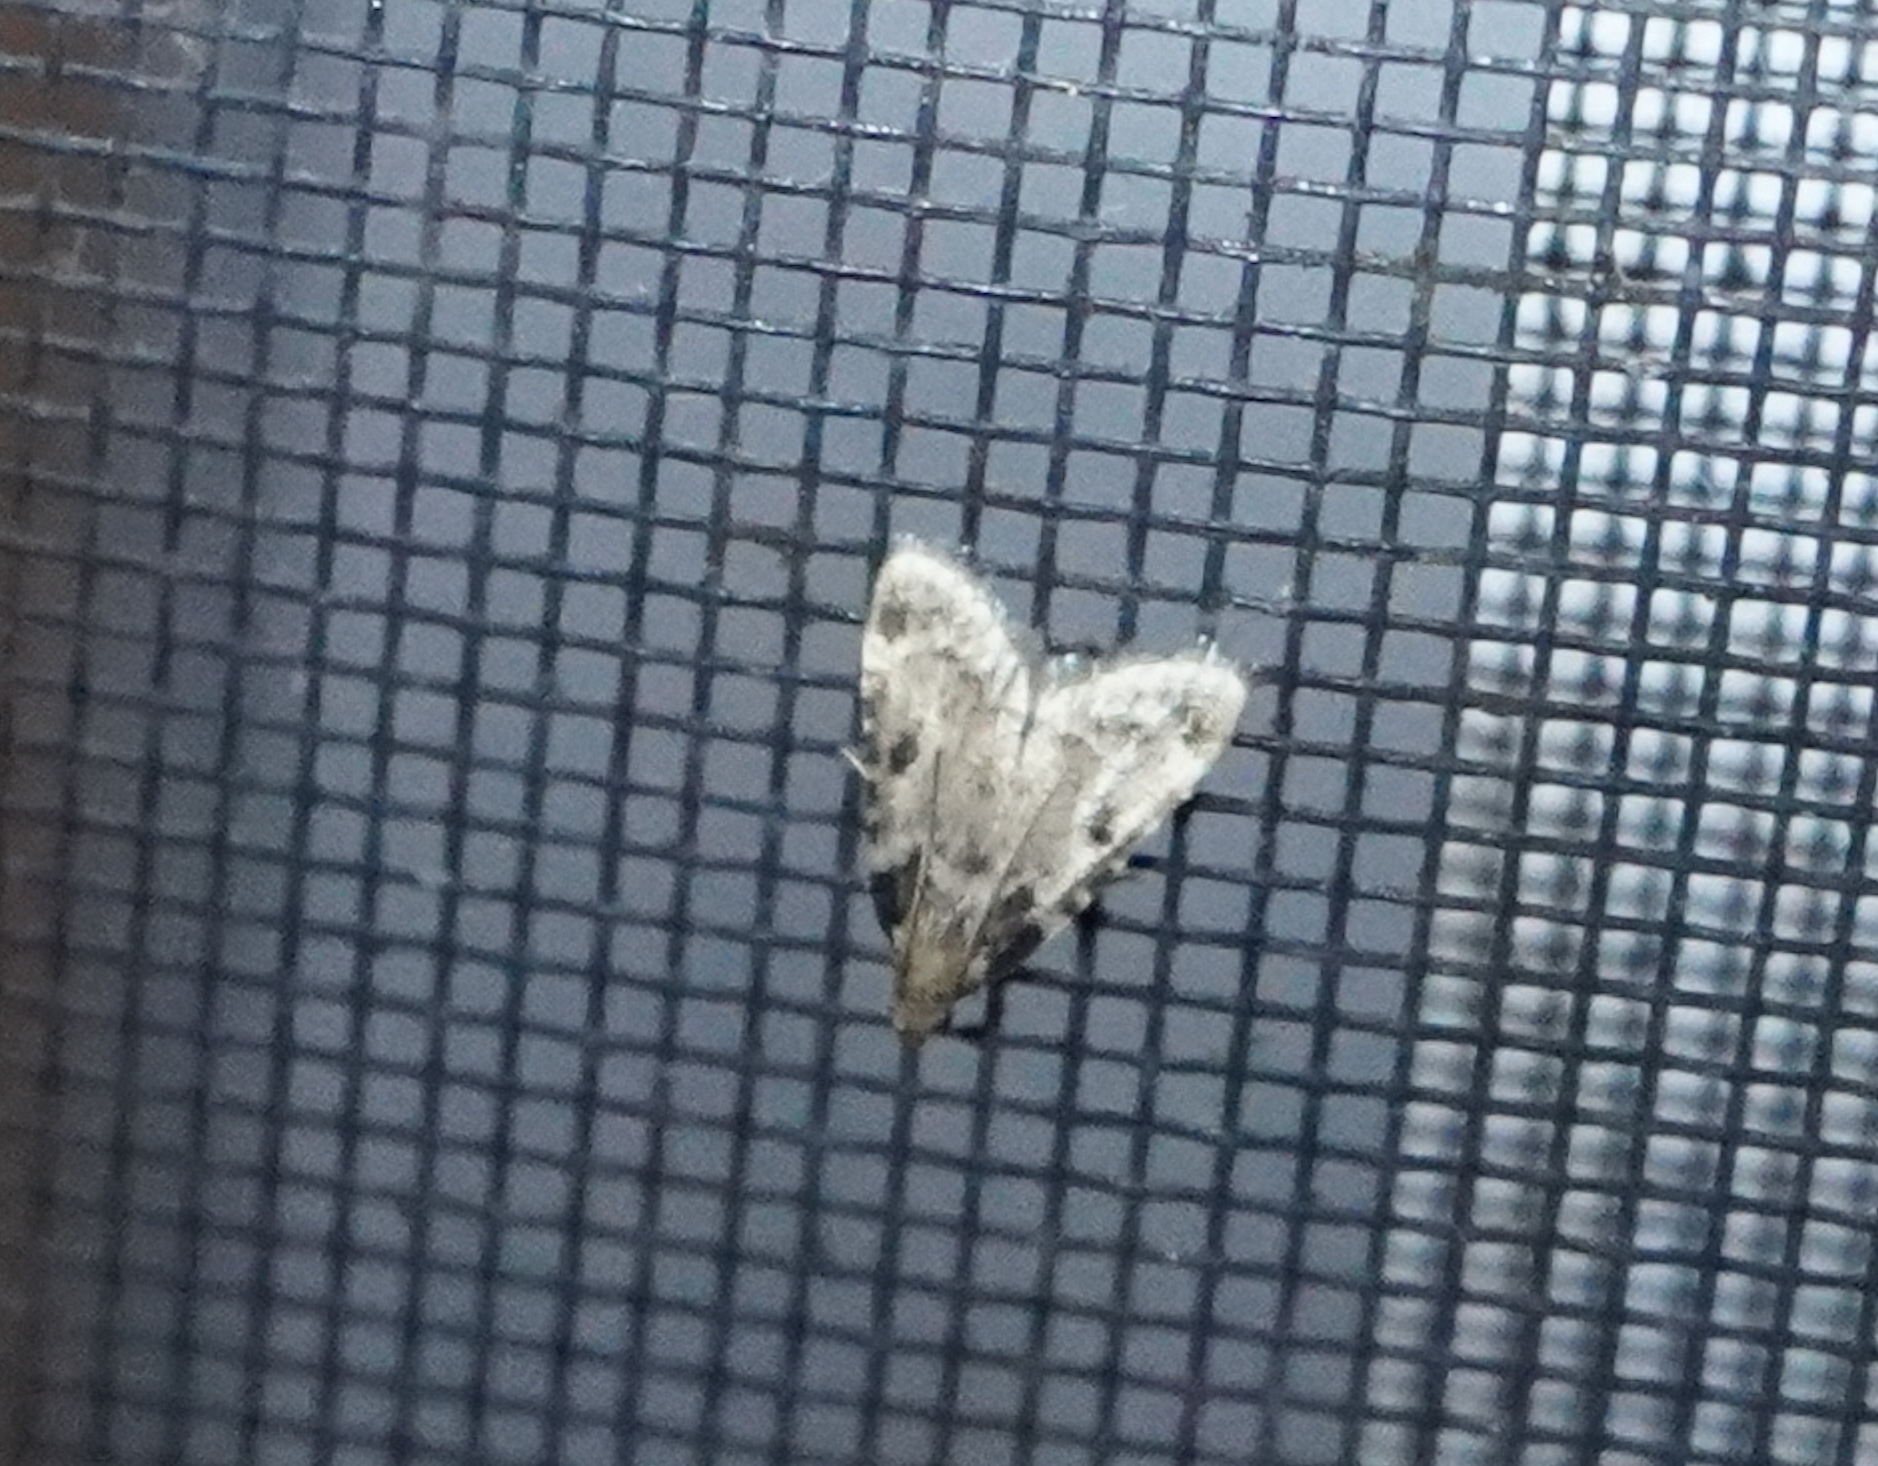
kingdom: Animalia
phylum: Arthropoda
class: Insecta
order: Lepidoptera
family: Pyralidae
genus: Aglossa
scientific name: Aglossa costiferalis
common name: Calico pyralid moth
